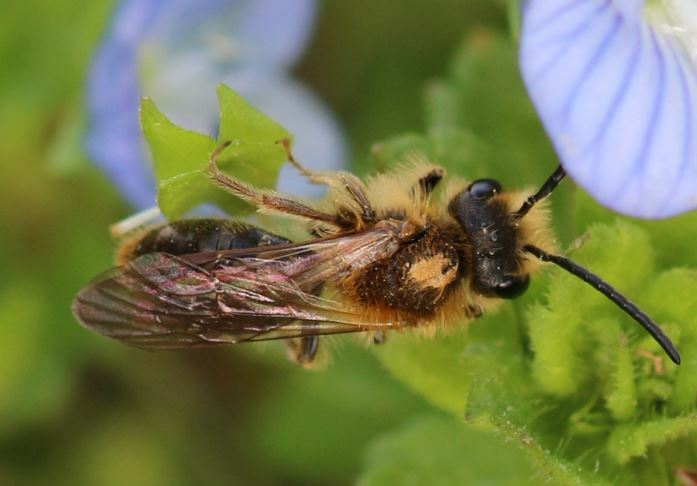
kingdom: Animalia
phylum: Arthropoda
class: Insecta
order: Hymenoptera
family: Andrenidae
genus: Andrena
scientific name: Andrena haemorrhoa
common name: Early mining bee
